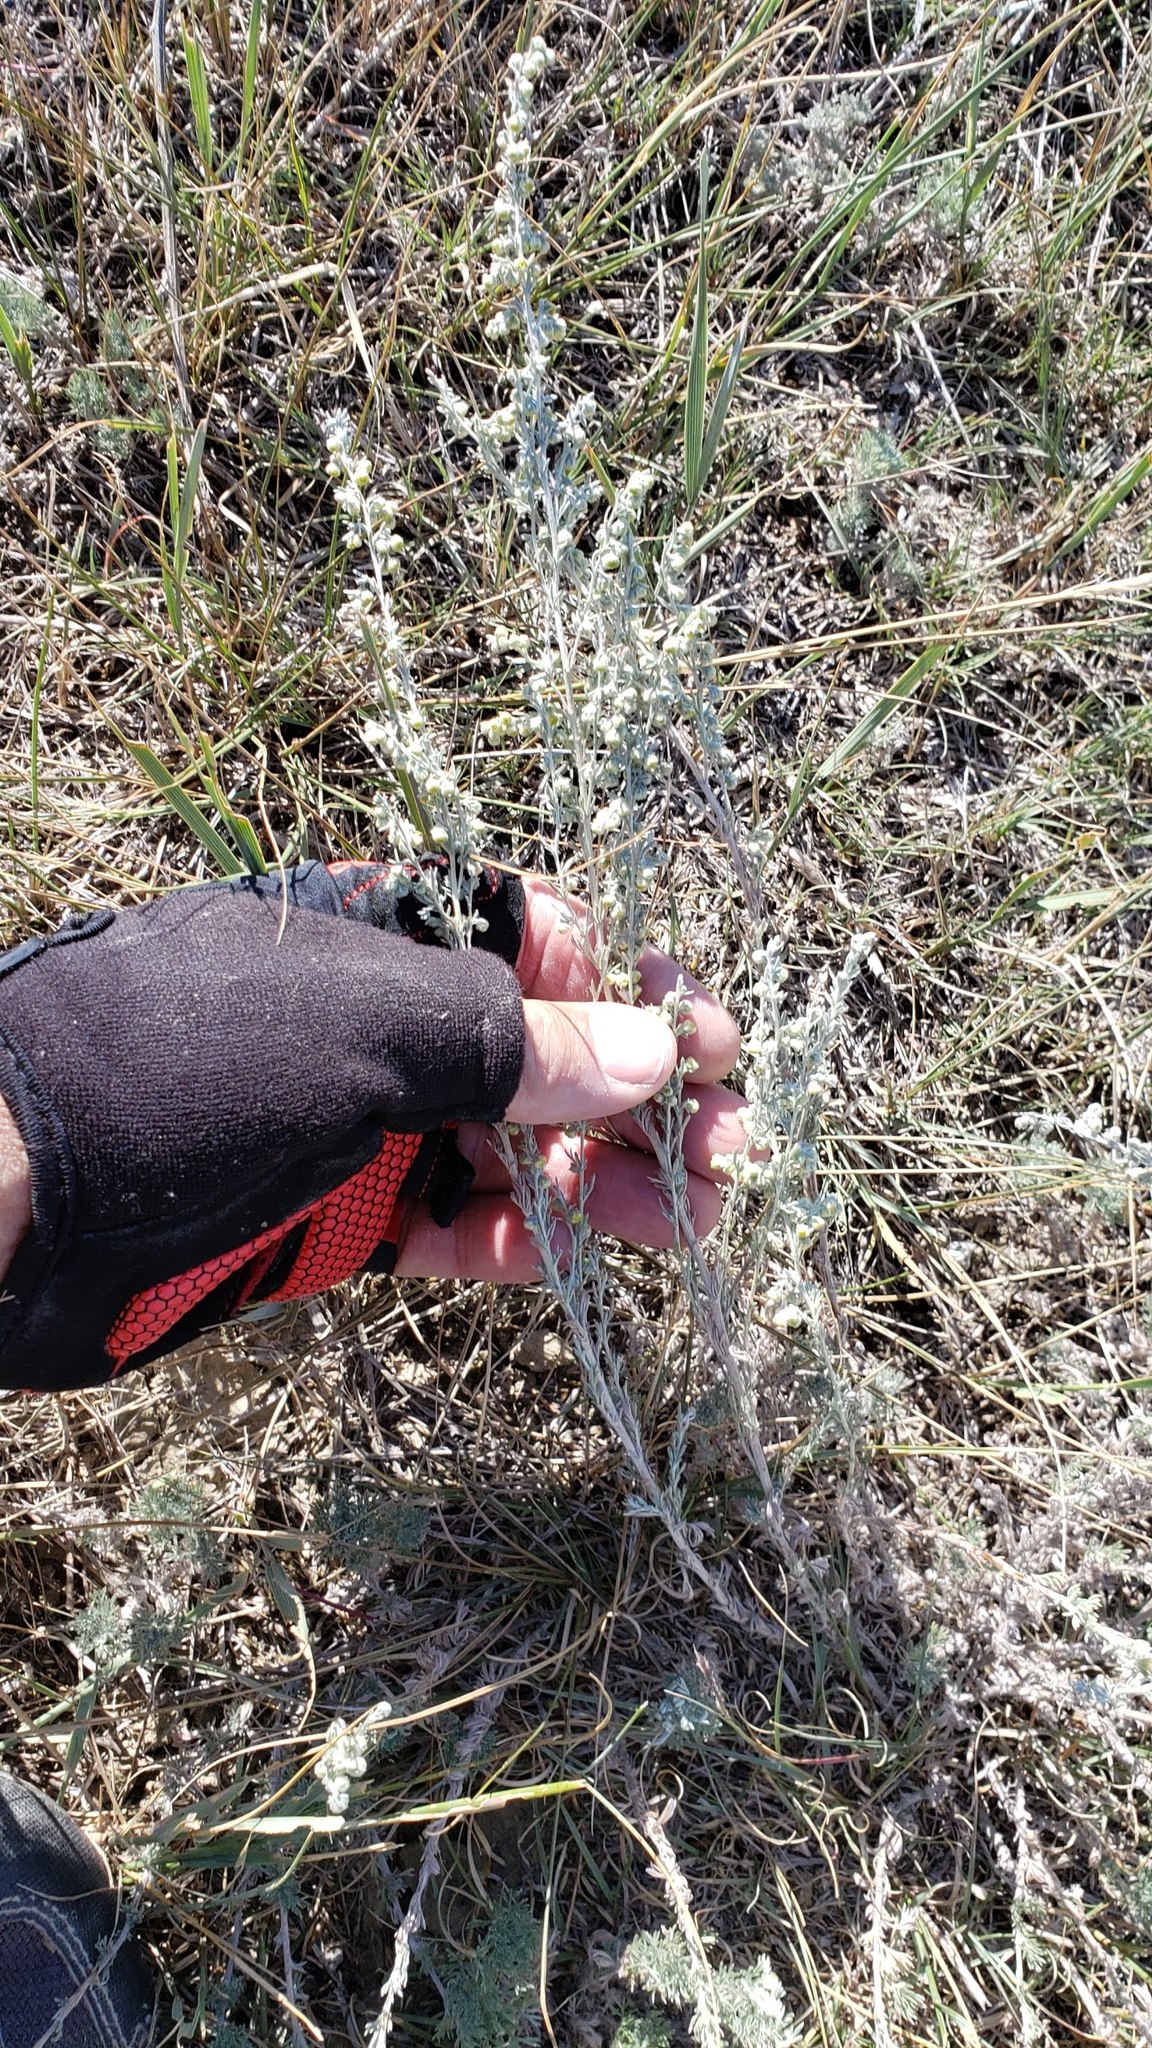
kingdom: Plantae
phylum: Tracheophyta
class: Magnoliopsida
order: Asterales
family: Asteraceae
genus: Artemisia
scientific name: Artemisia frigida
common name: Prairie sagewort
